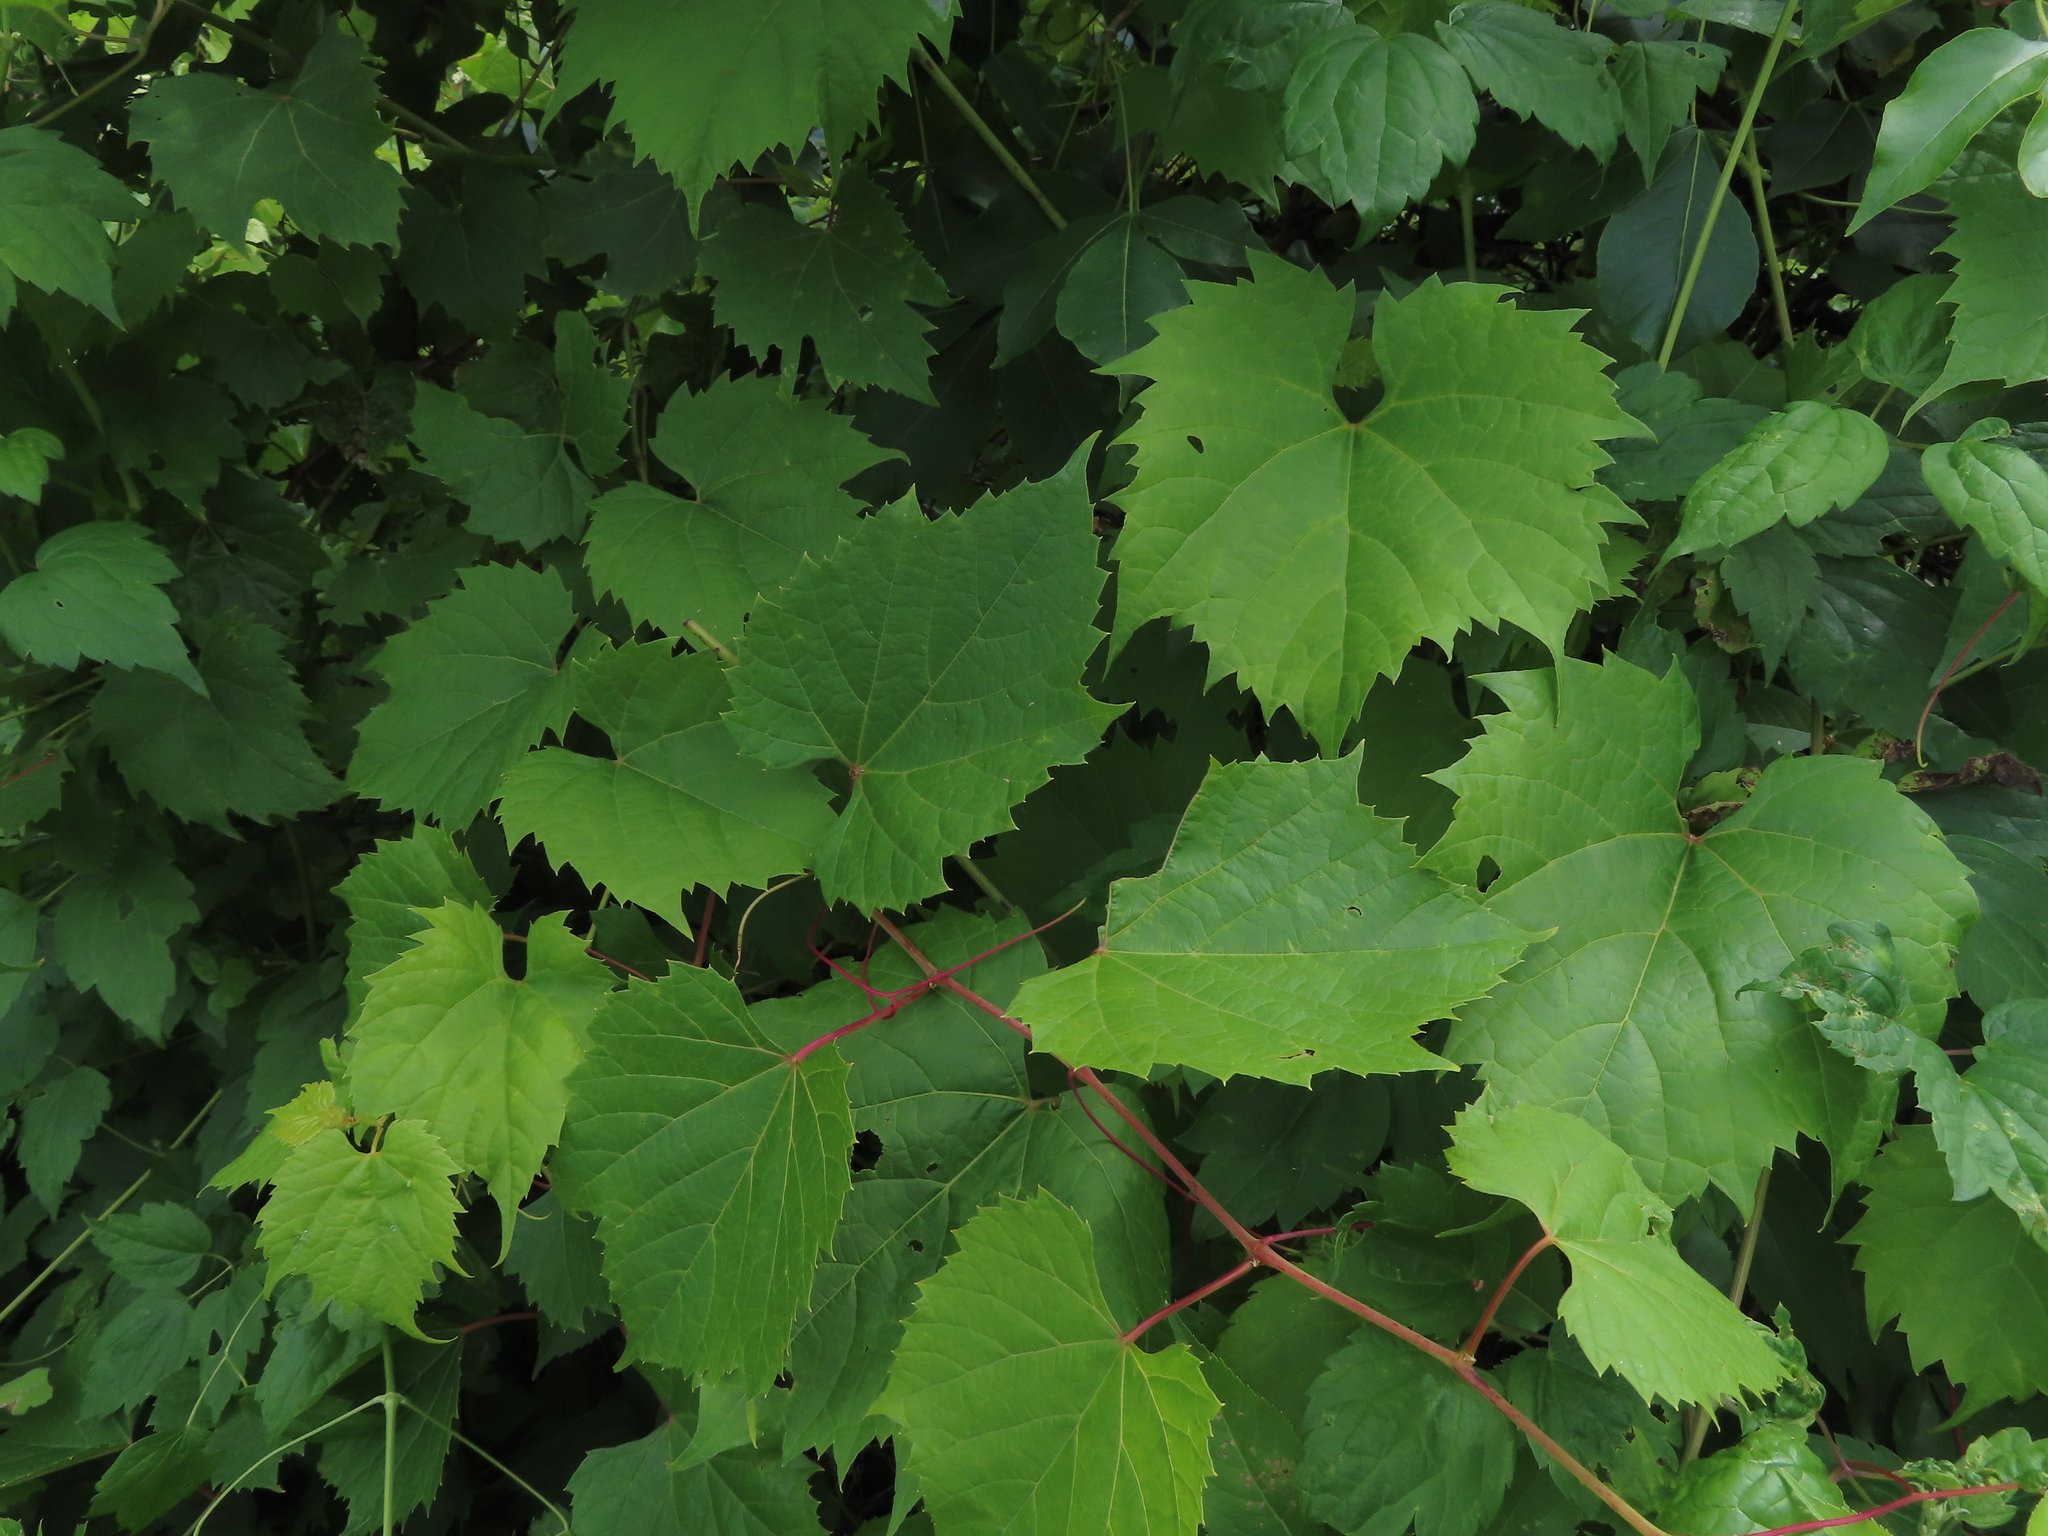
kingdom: Plantae
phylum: Tracheophyta
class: Magnoliopsida
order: Vitales
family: Vitaceae
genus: Vitis
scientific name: Vitis riparia
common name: Frost grape
